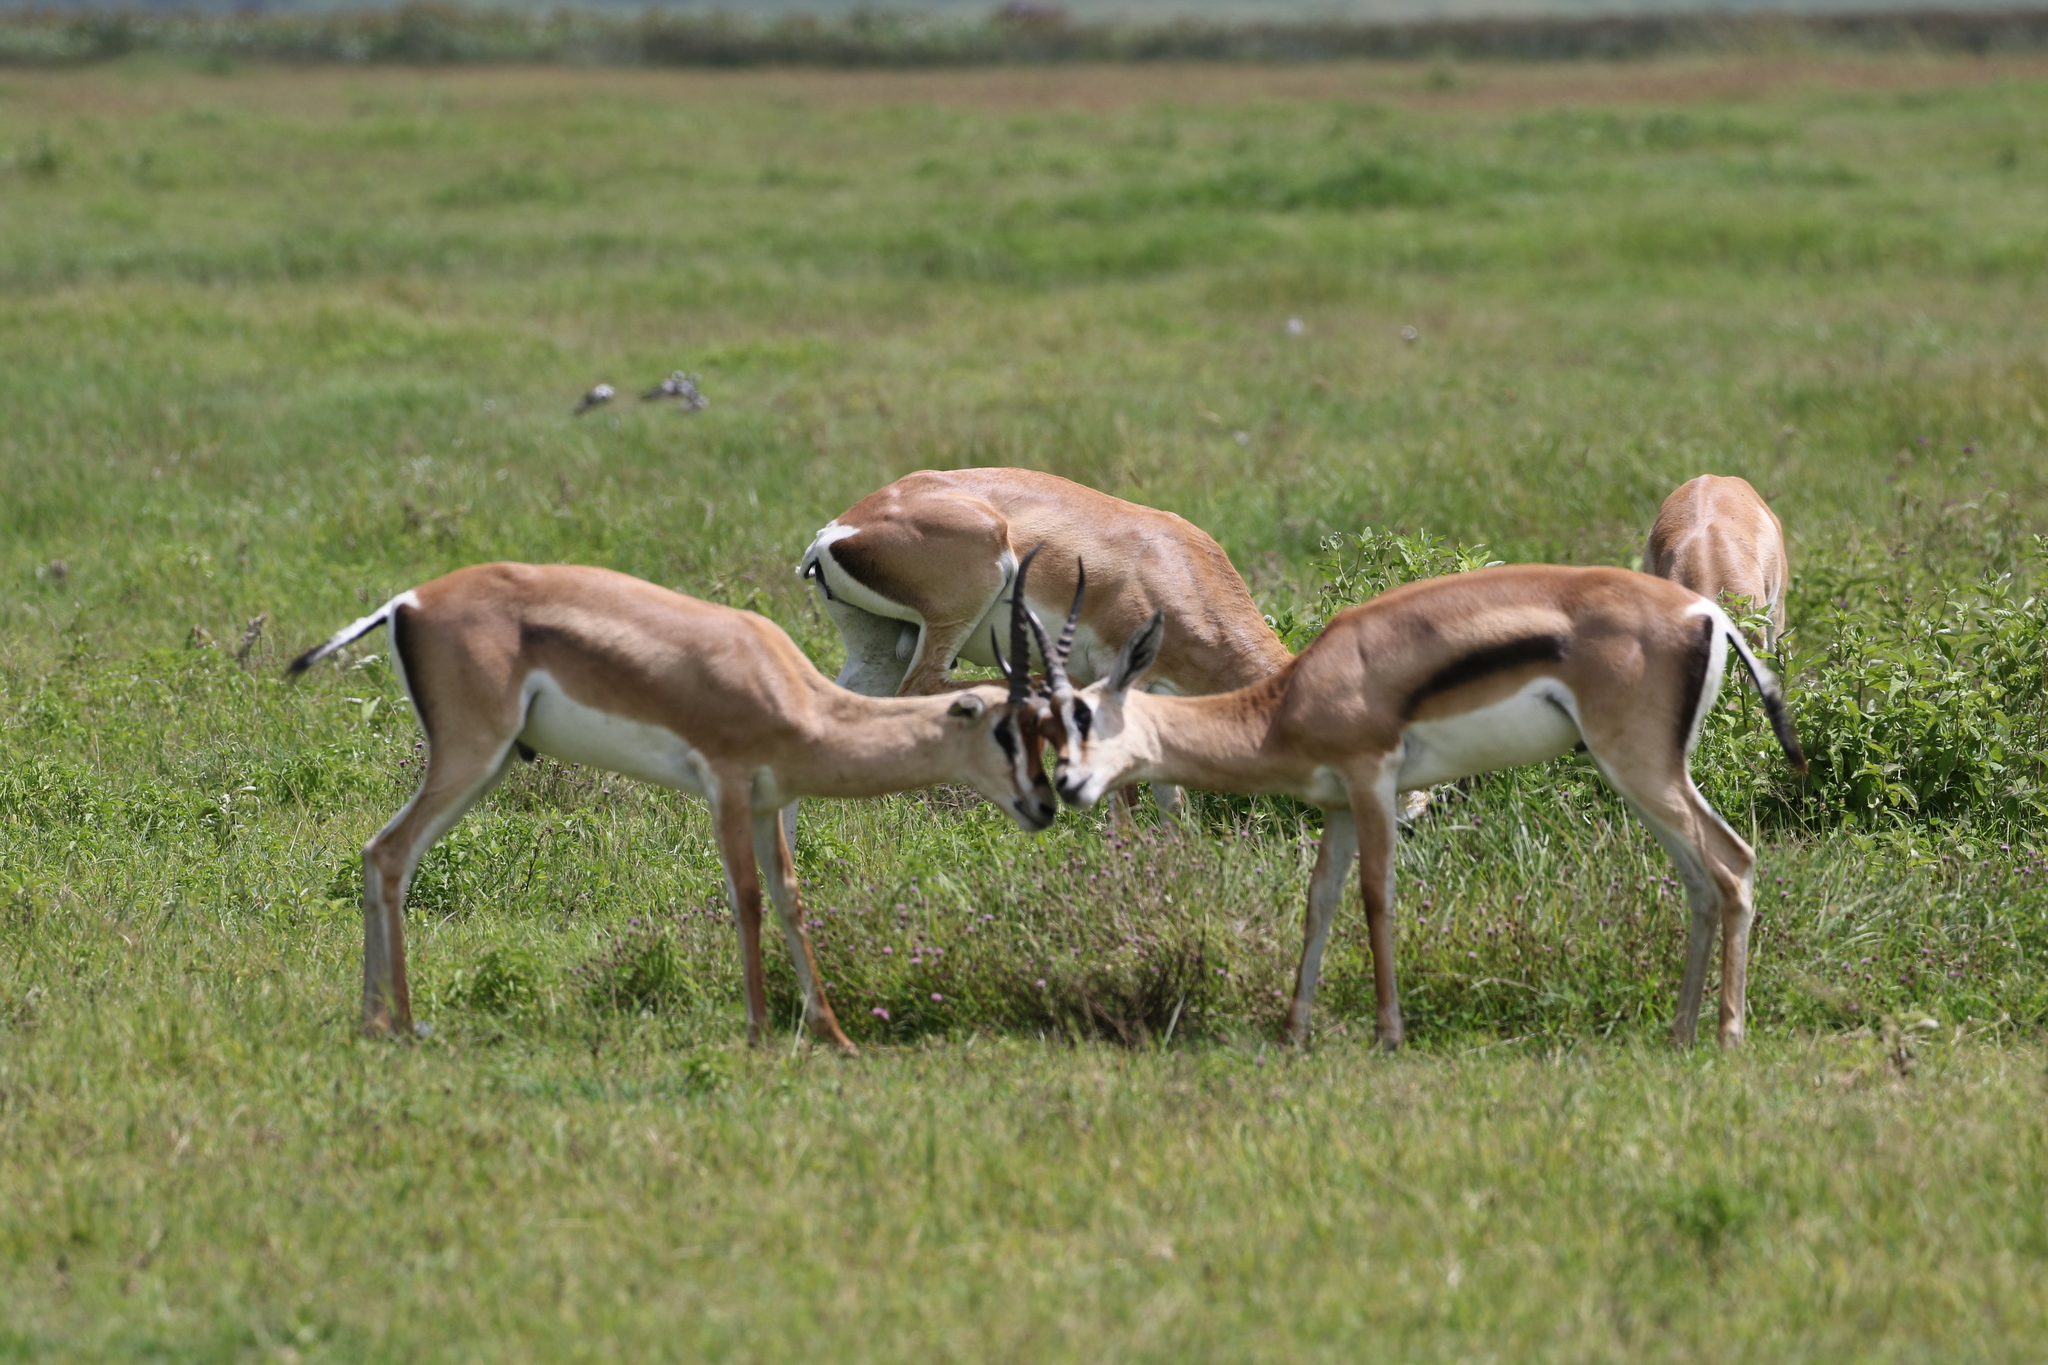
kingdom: Animalia
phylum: Chordata
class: Mammalia
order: Artiodactyla
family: Bovidae
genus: Nanger
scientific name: Nanger granti
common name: Grant's gazelle
